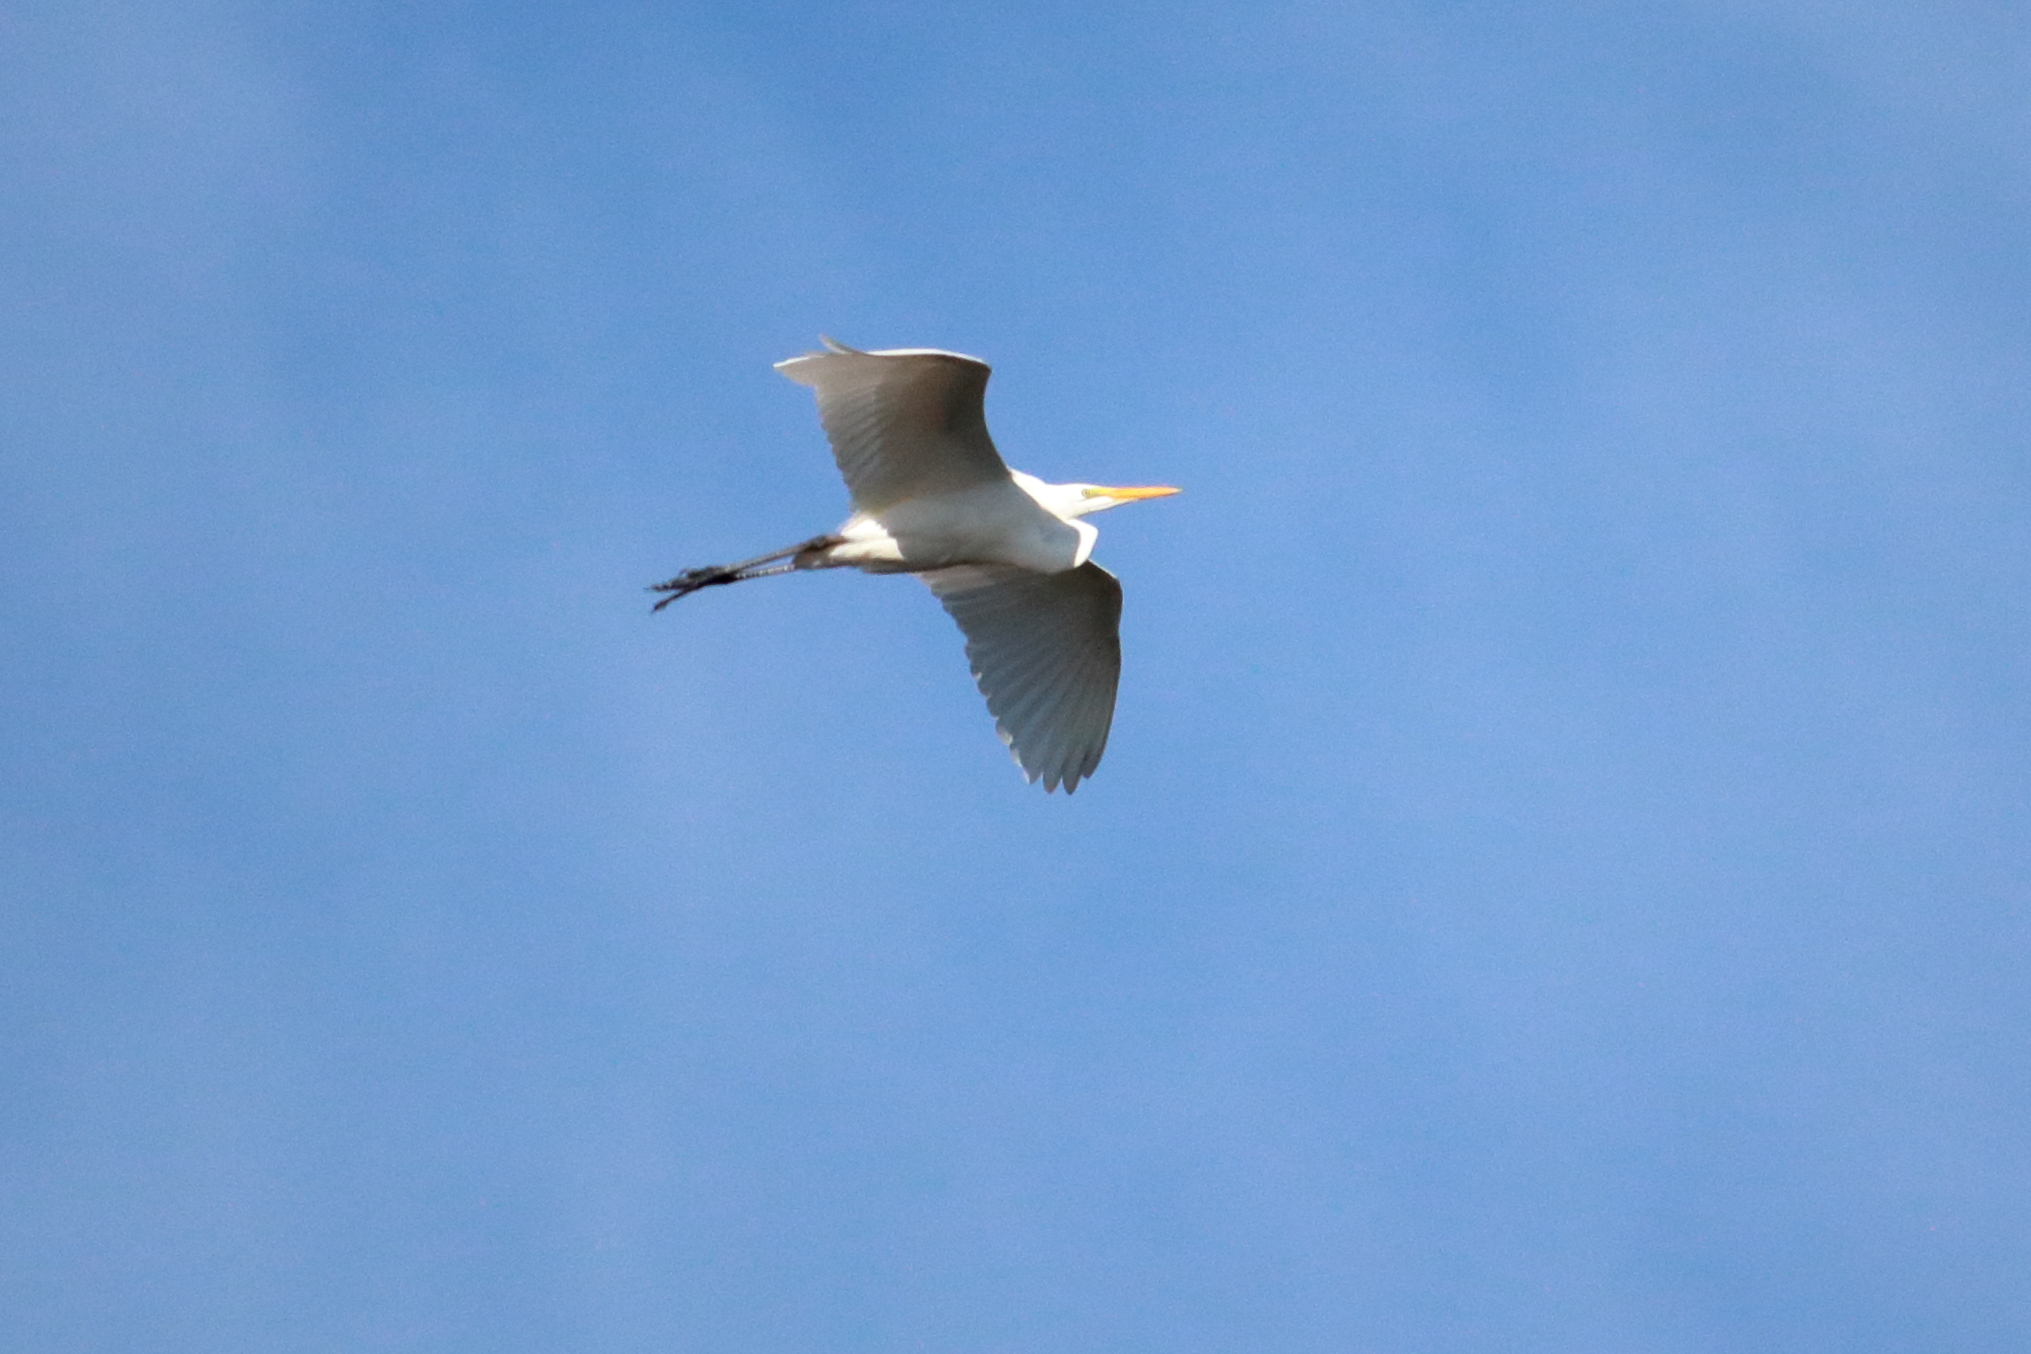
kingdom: Animalia
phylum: Chordata
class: Aves
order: Pelecaniformes
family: Ardeidae
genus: Ardea
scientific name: Ardea alba
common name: Great egret
